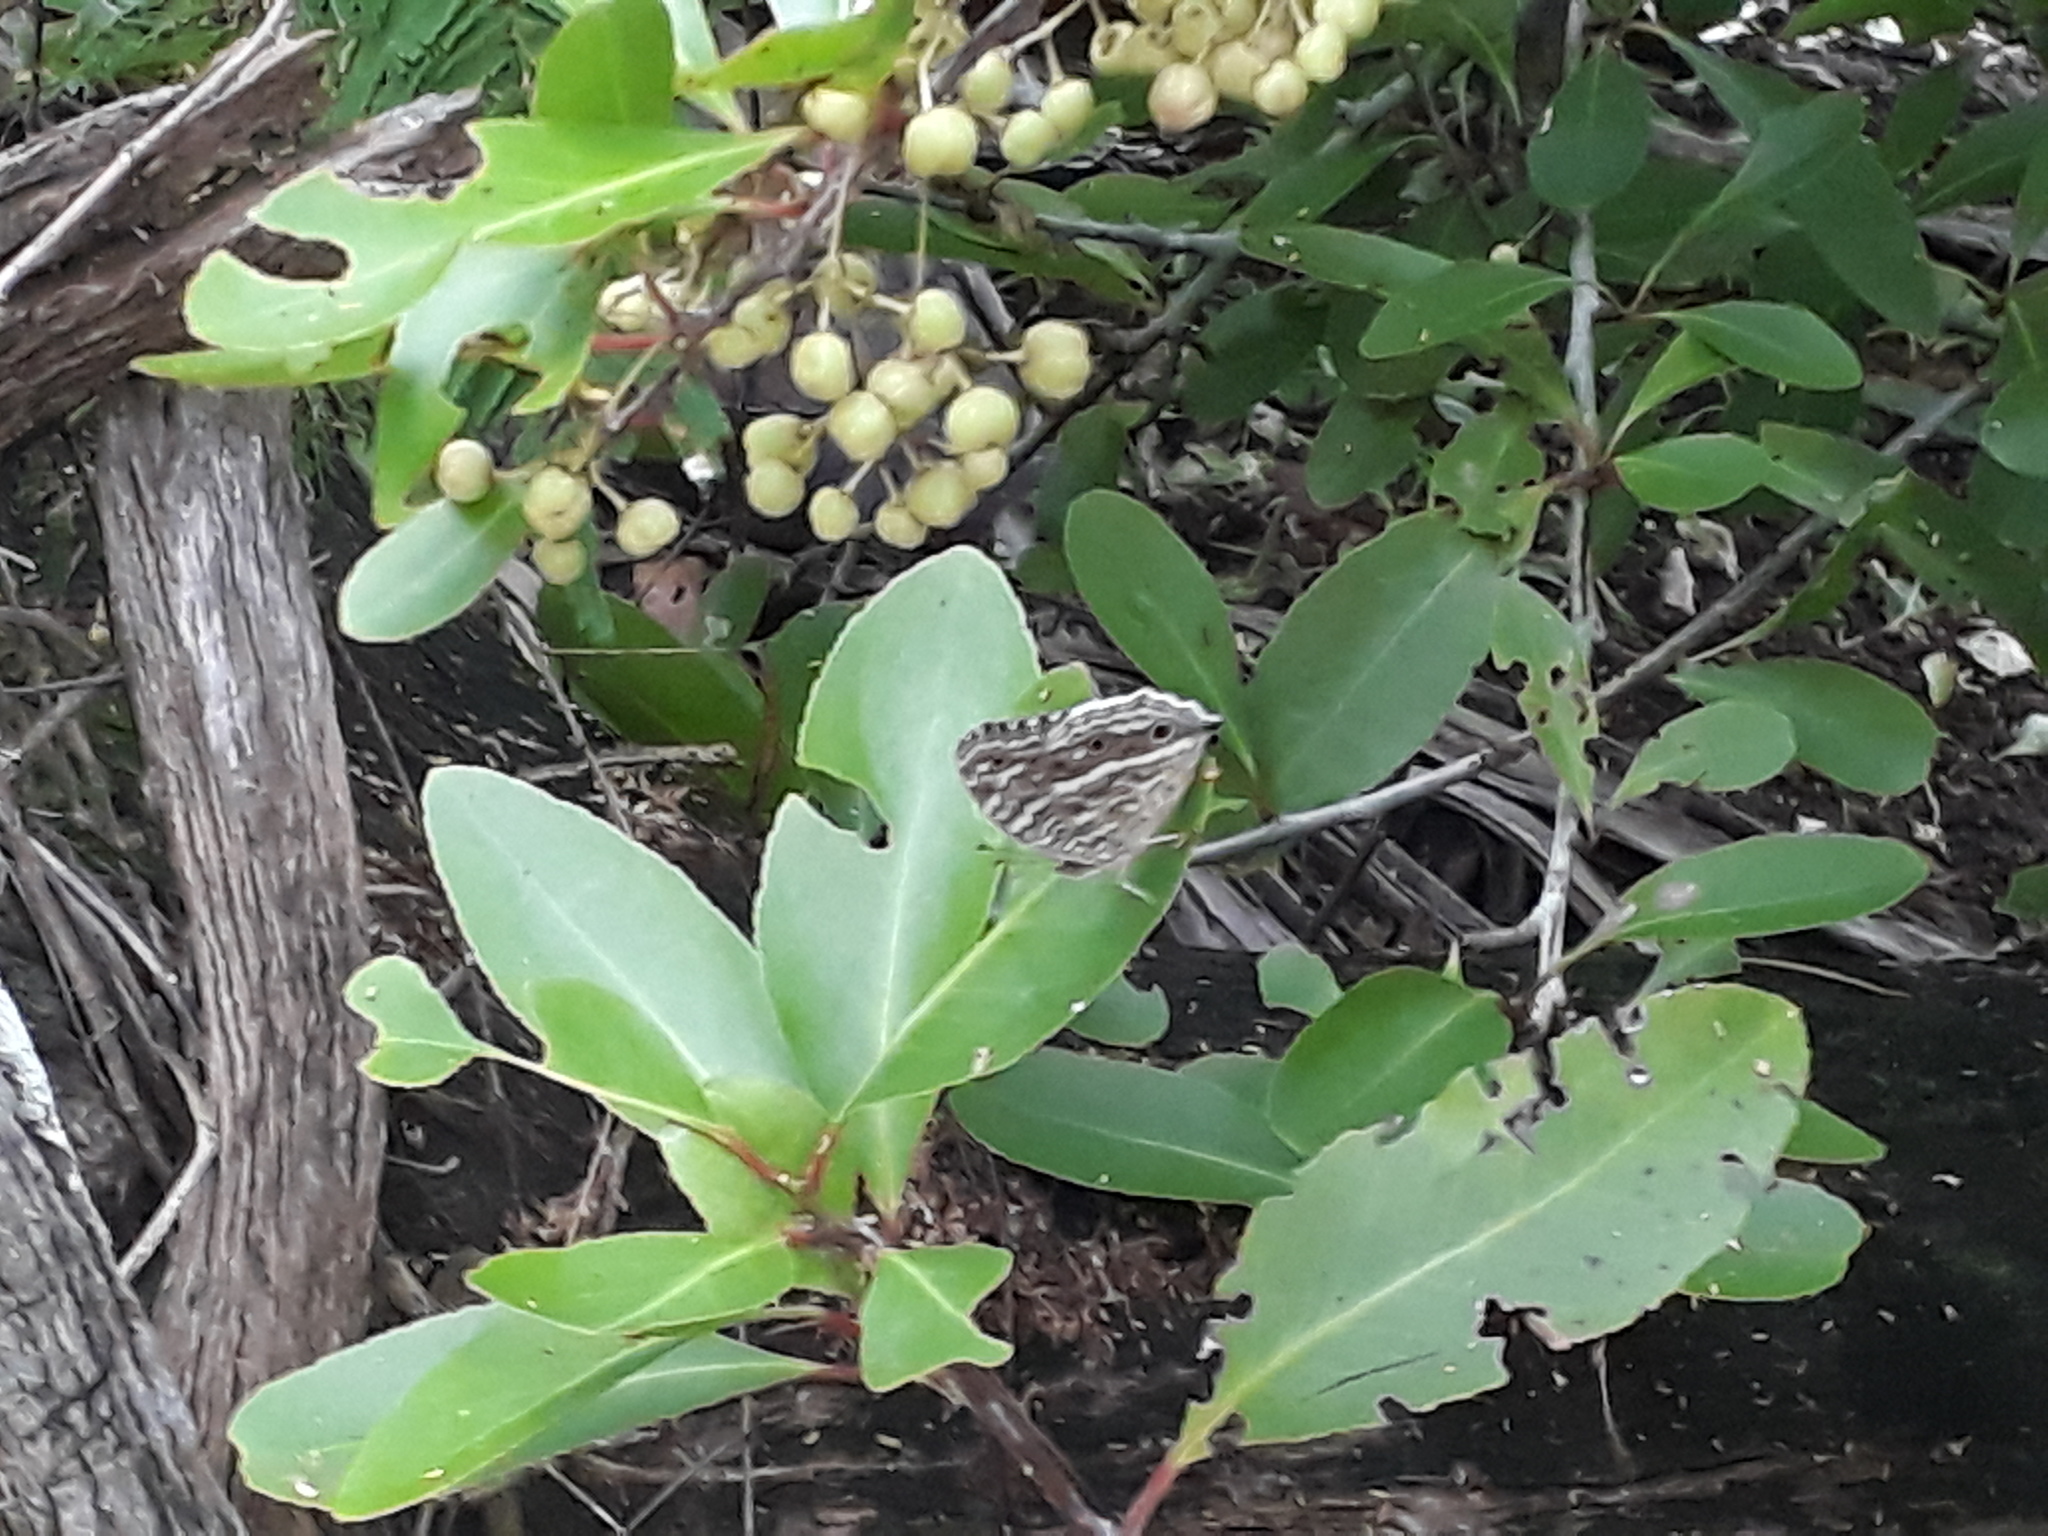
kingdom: Animalia
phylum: Arthropoda
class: Insecta
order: Lepidoptera
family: Nymphalidae
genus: Junonia
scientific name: Junonia rhadama
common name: Royal blue pansy
